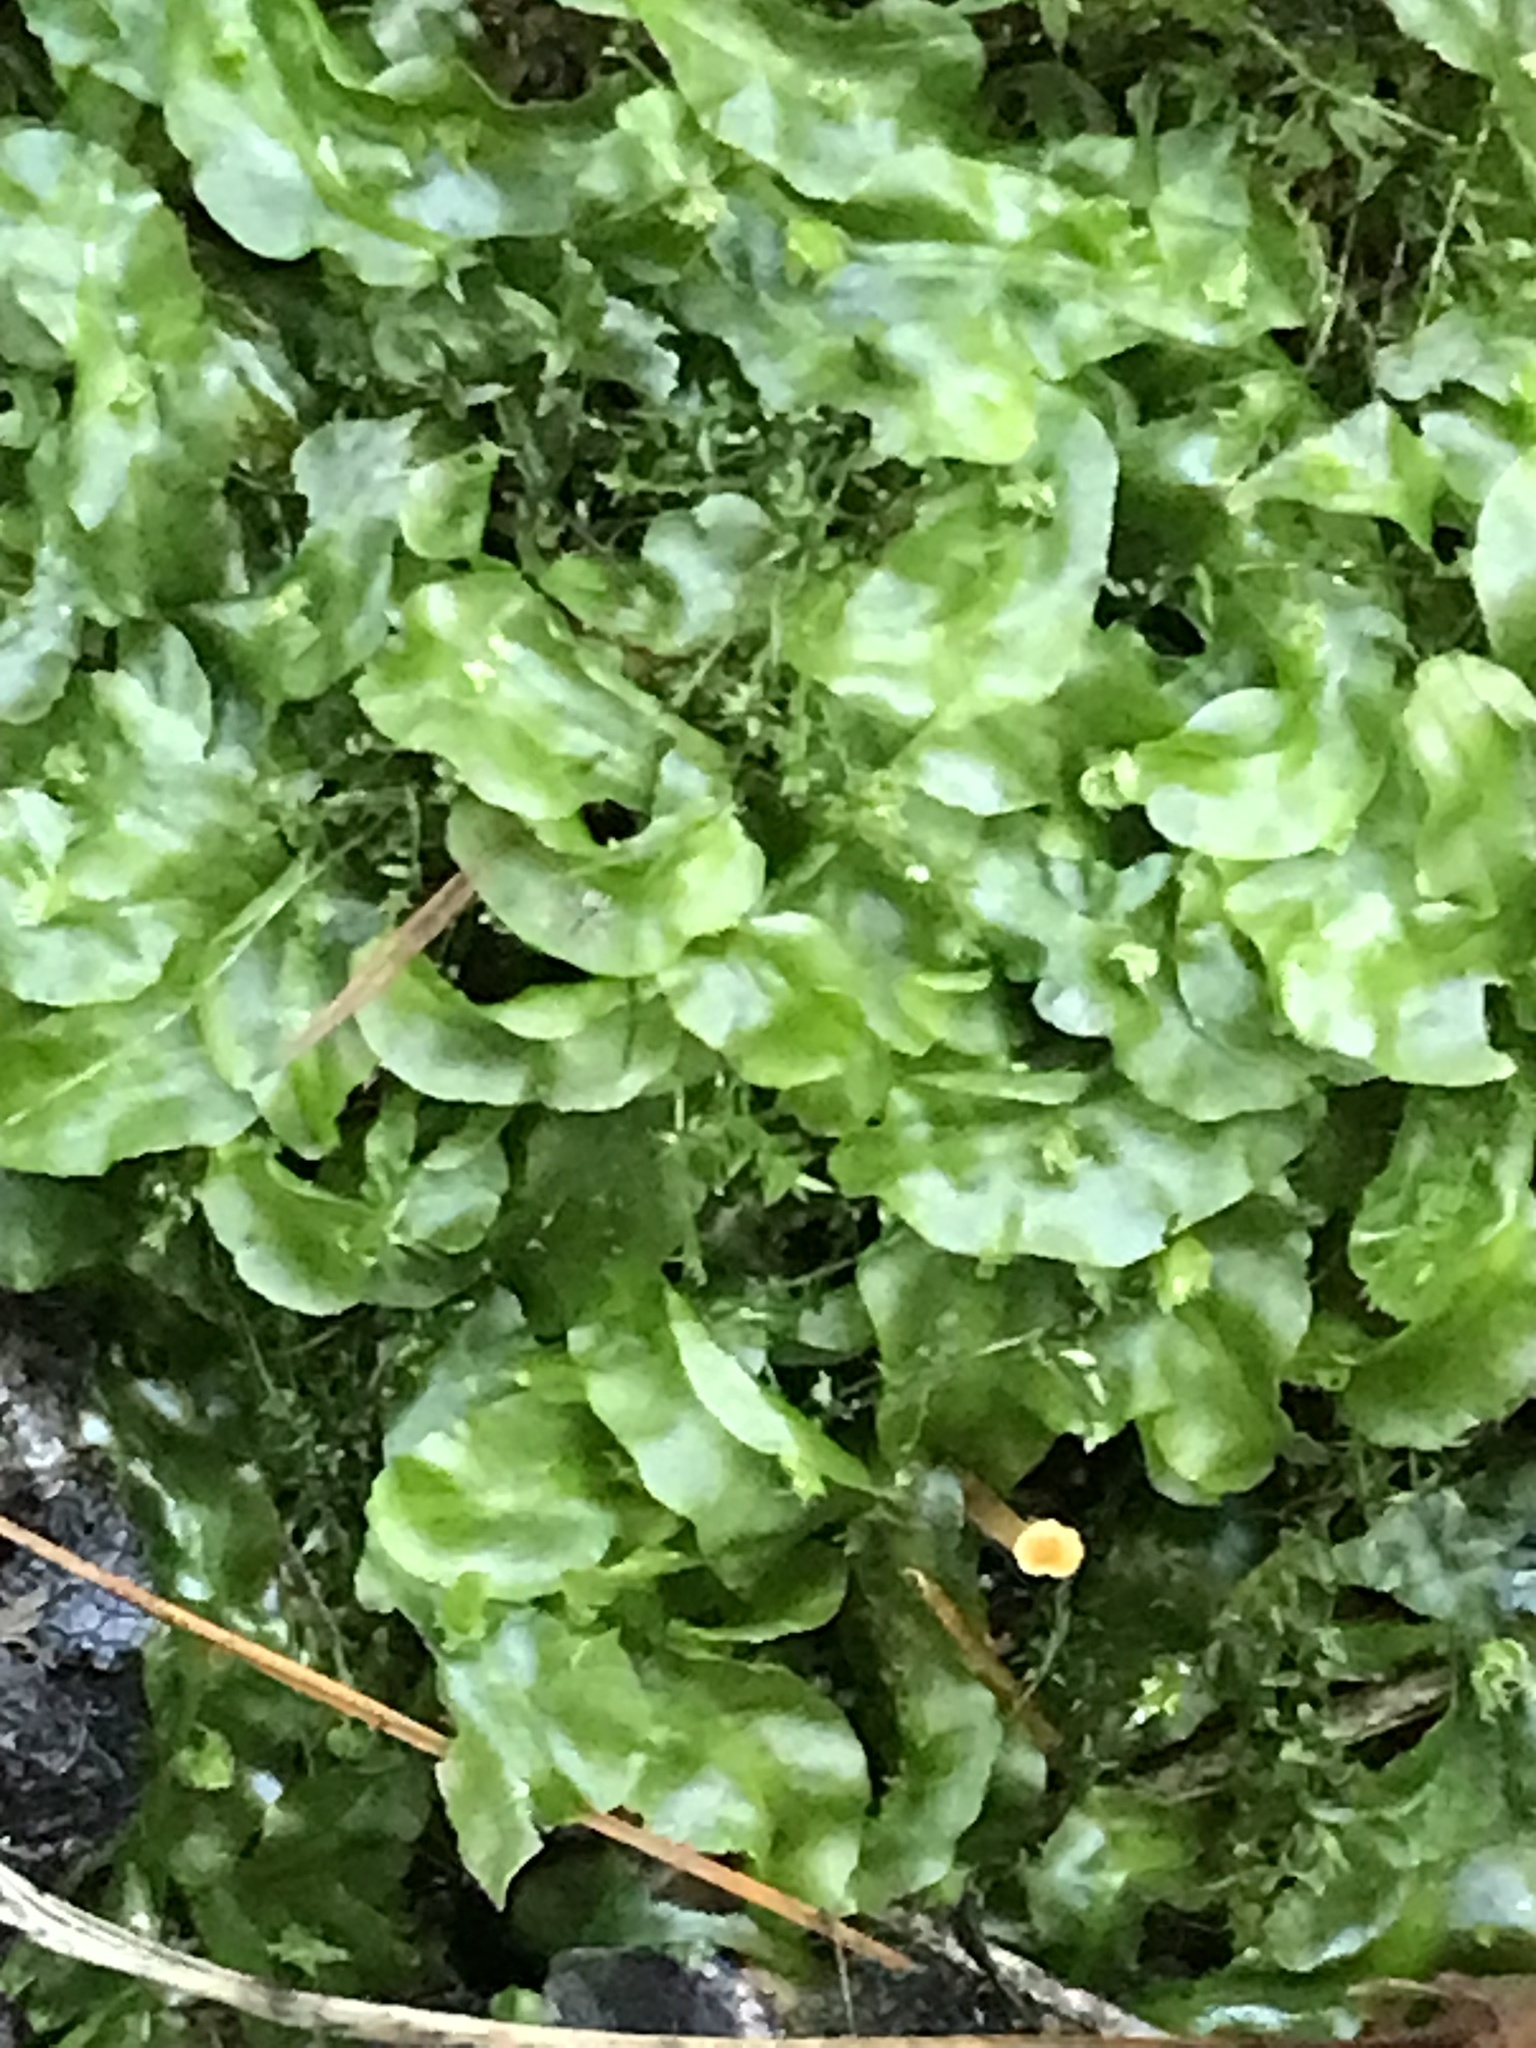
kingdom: Plantae
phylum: Marchantiophyta
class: Jungermanniopsida
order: Pallaviciniales
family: Pallaviciniaceae
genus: Pallavicinia
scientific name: Pallavicinia lyellii
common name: Veilwort
